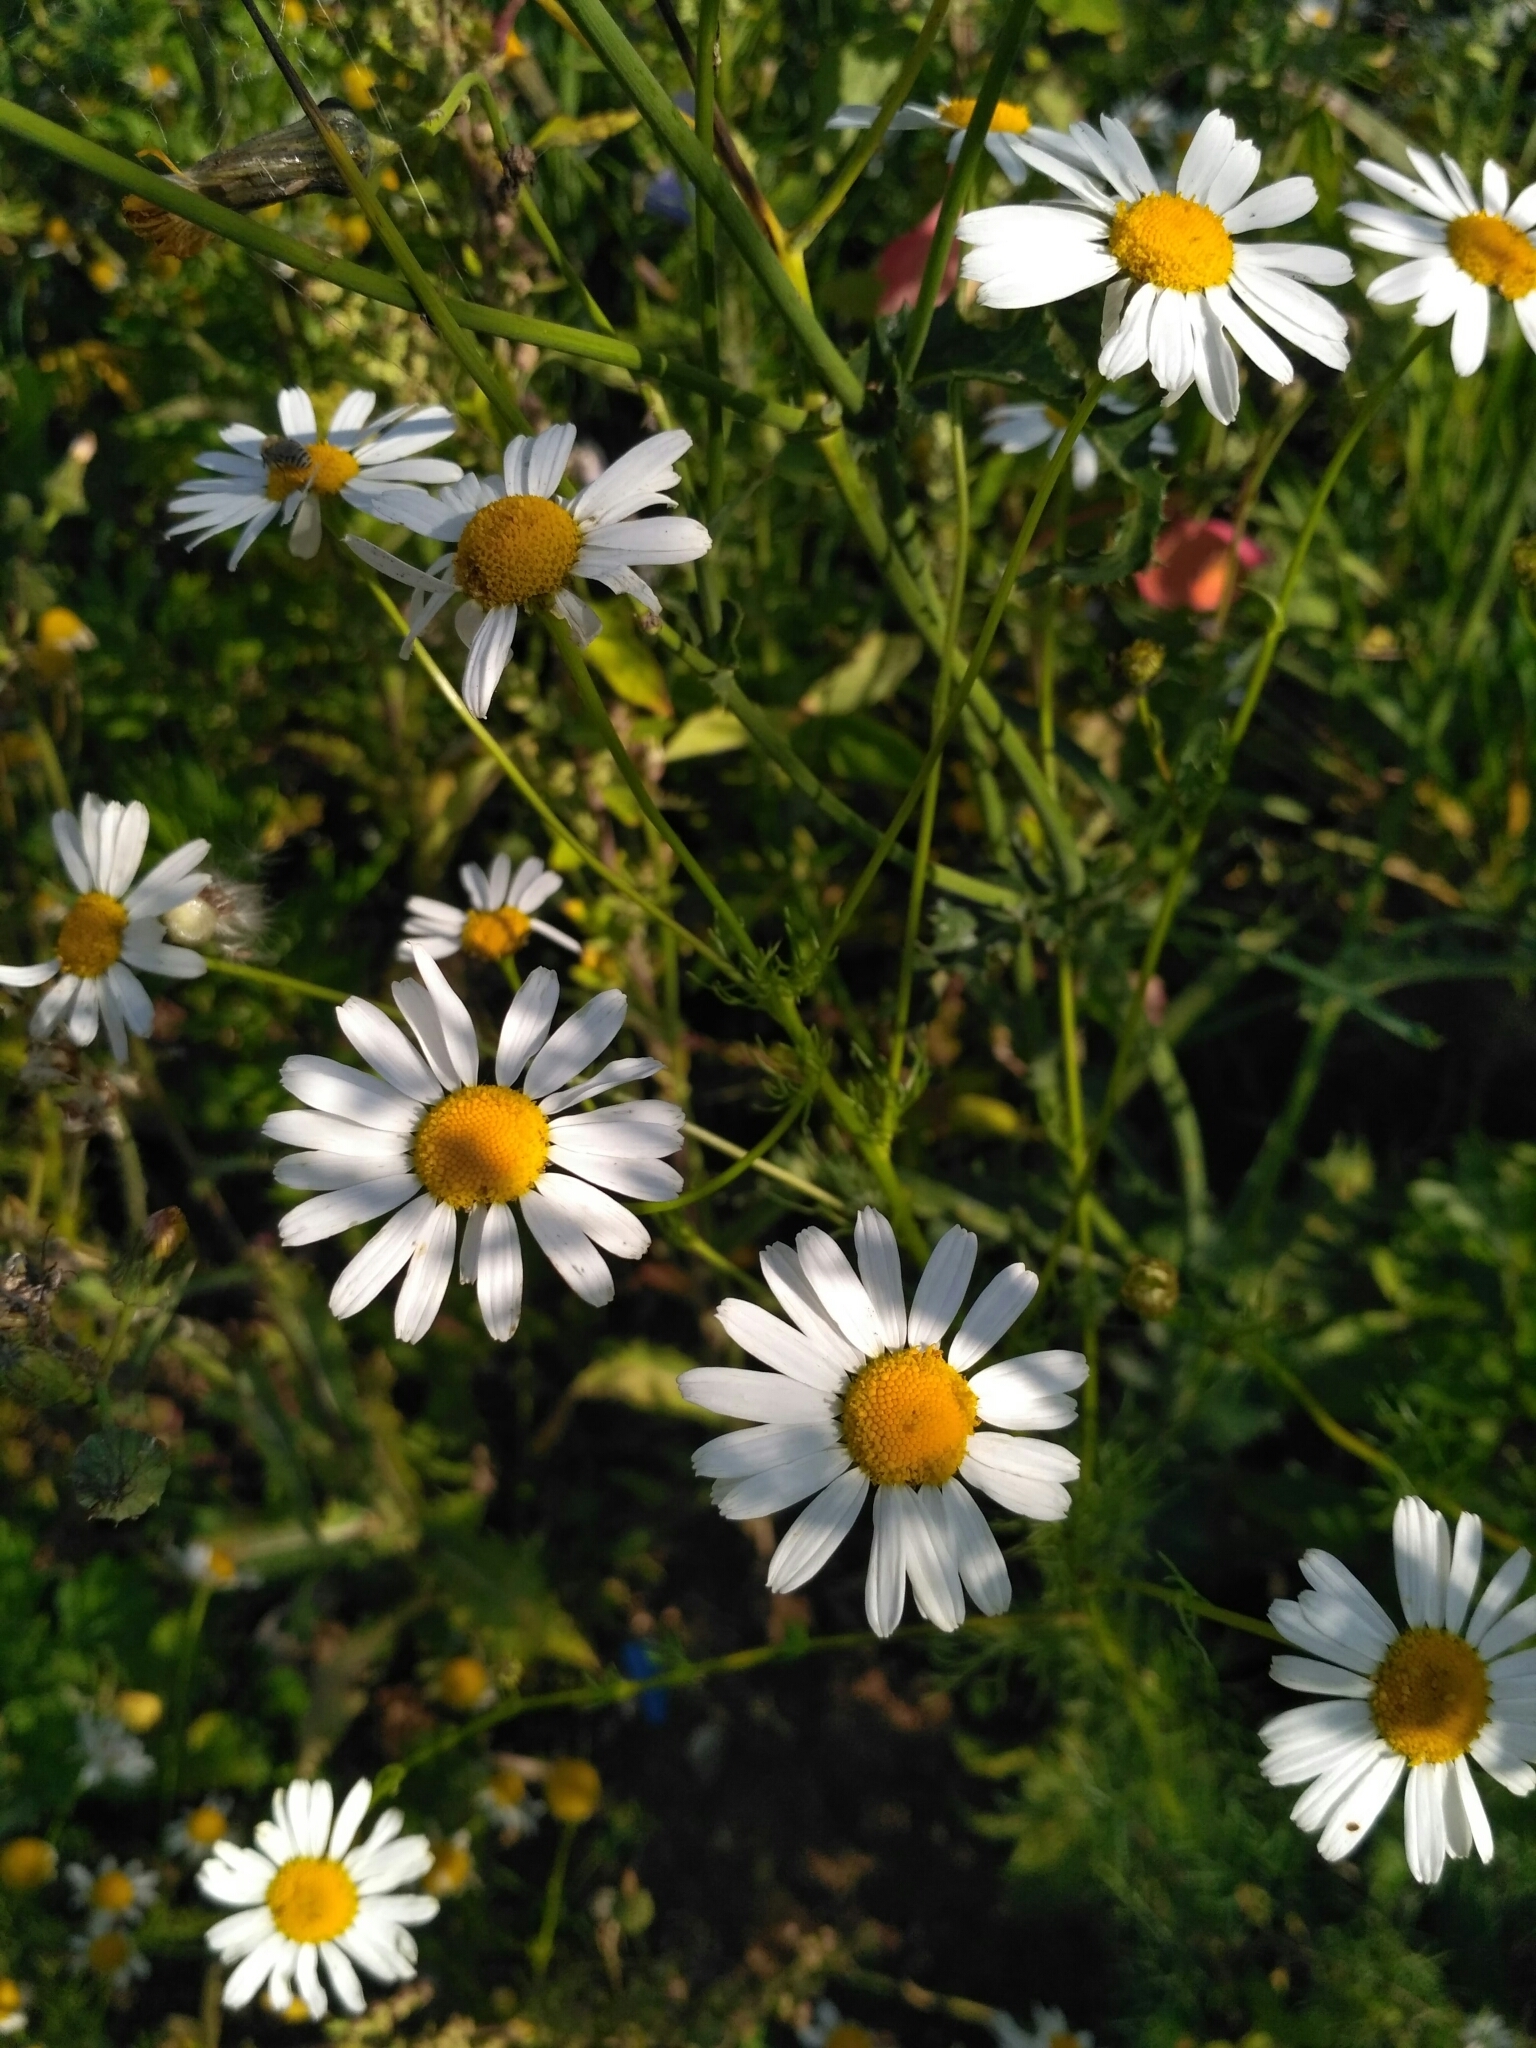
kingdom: Plantae
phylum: Tracheophyta
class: Magnoliopsida
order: Asterales
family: Asteraceae
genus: Tripleurospermum
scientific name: Tripleurospermum inodorum
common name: Scentless mayweed
